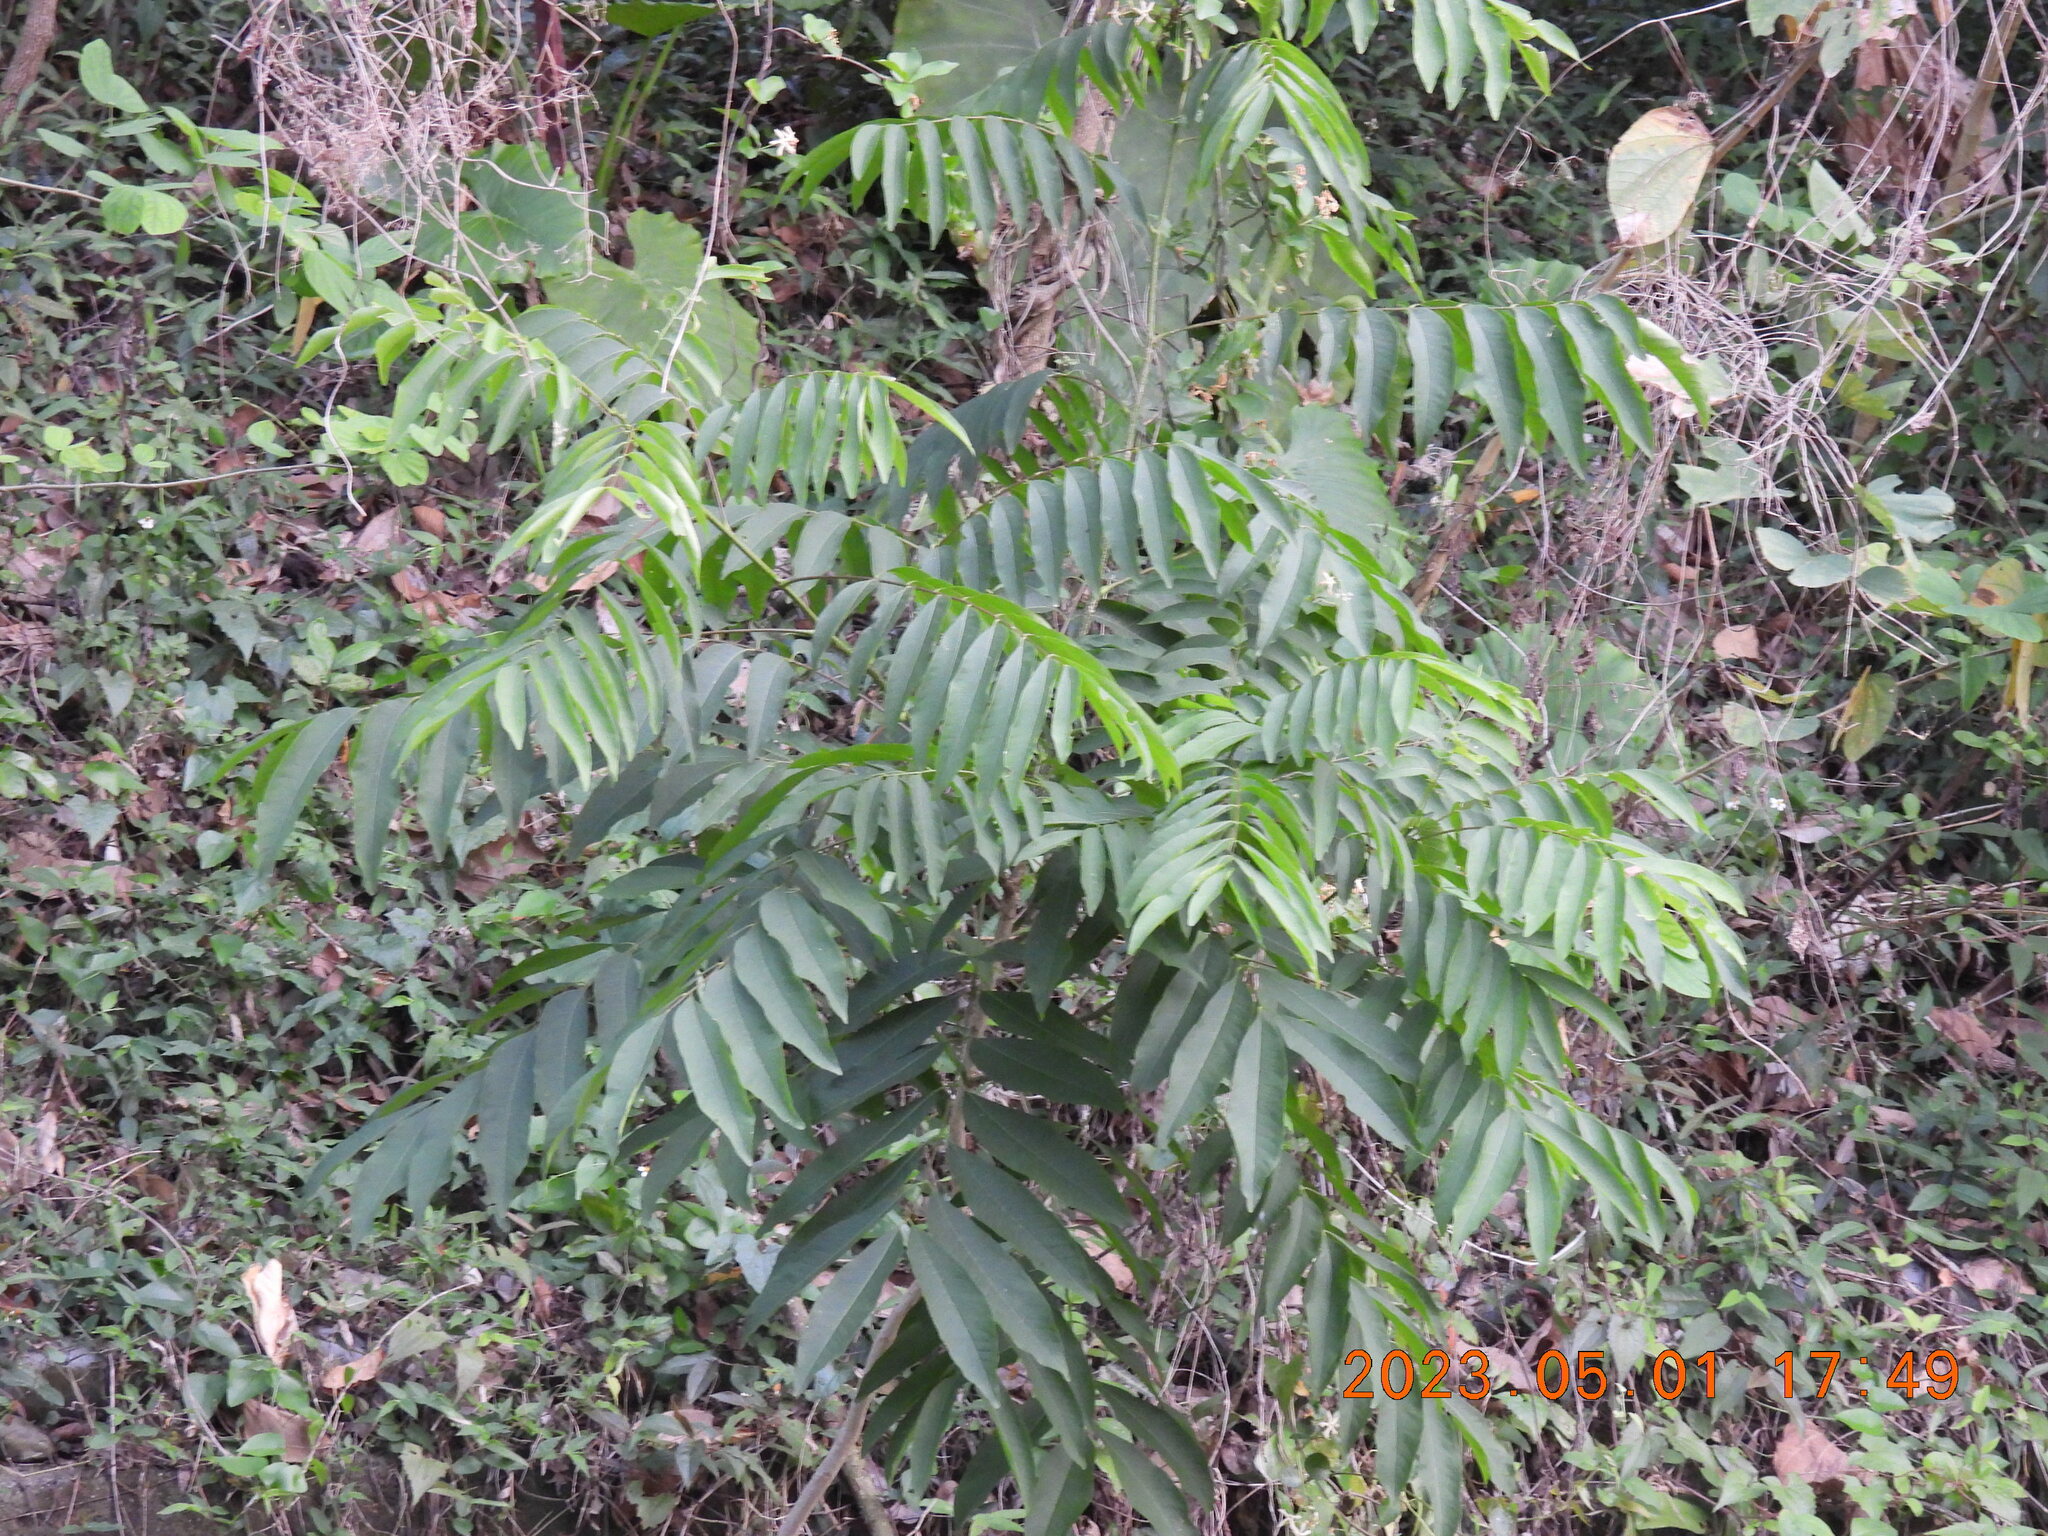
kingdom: Plantae
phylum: Tracheophyta
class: Magnoliopsida
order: Sapindales
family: Sapindaceae
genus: Sapindus
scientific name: Sapindus mukorossi
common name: Chinese soapberry
